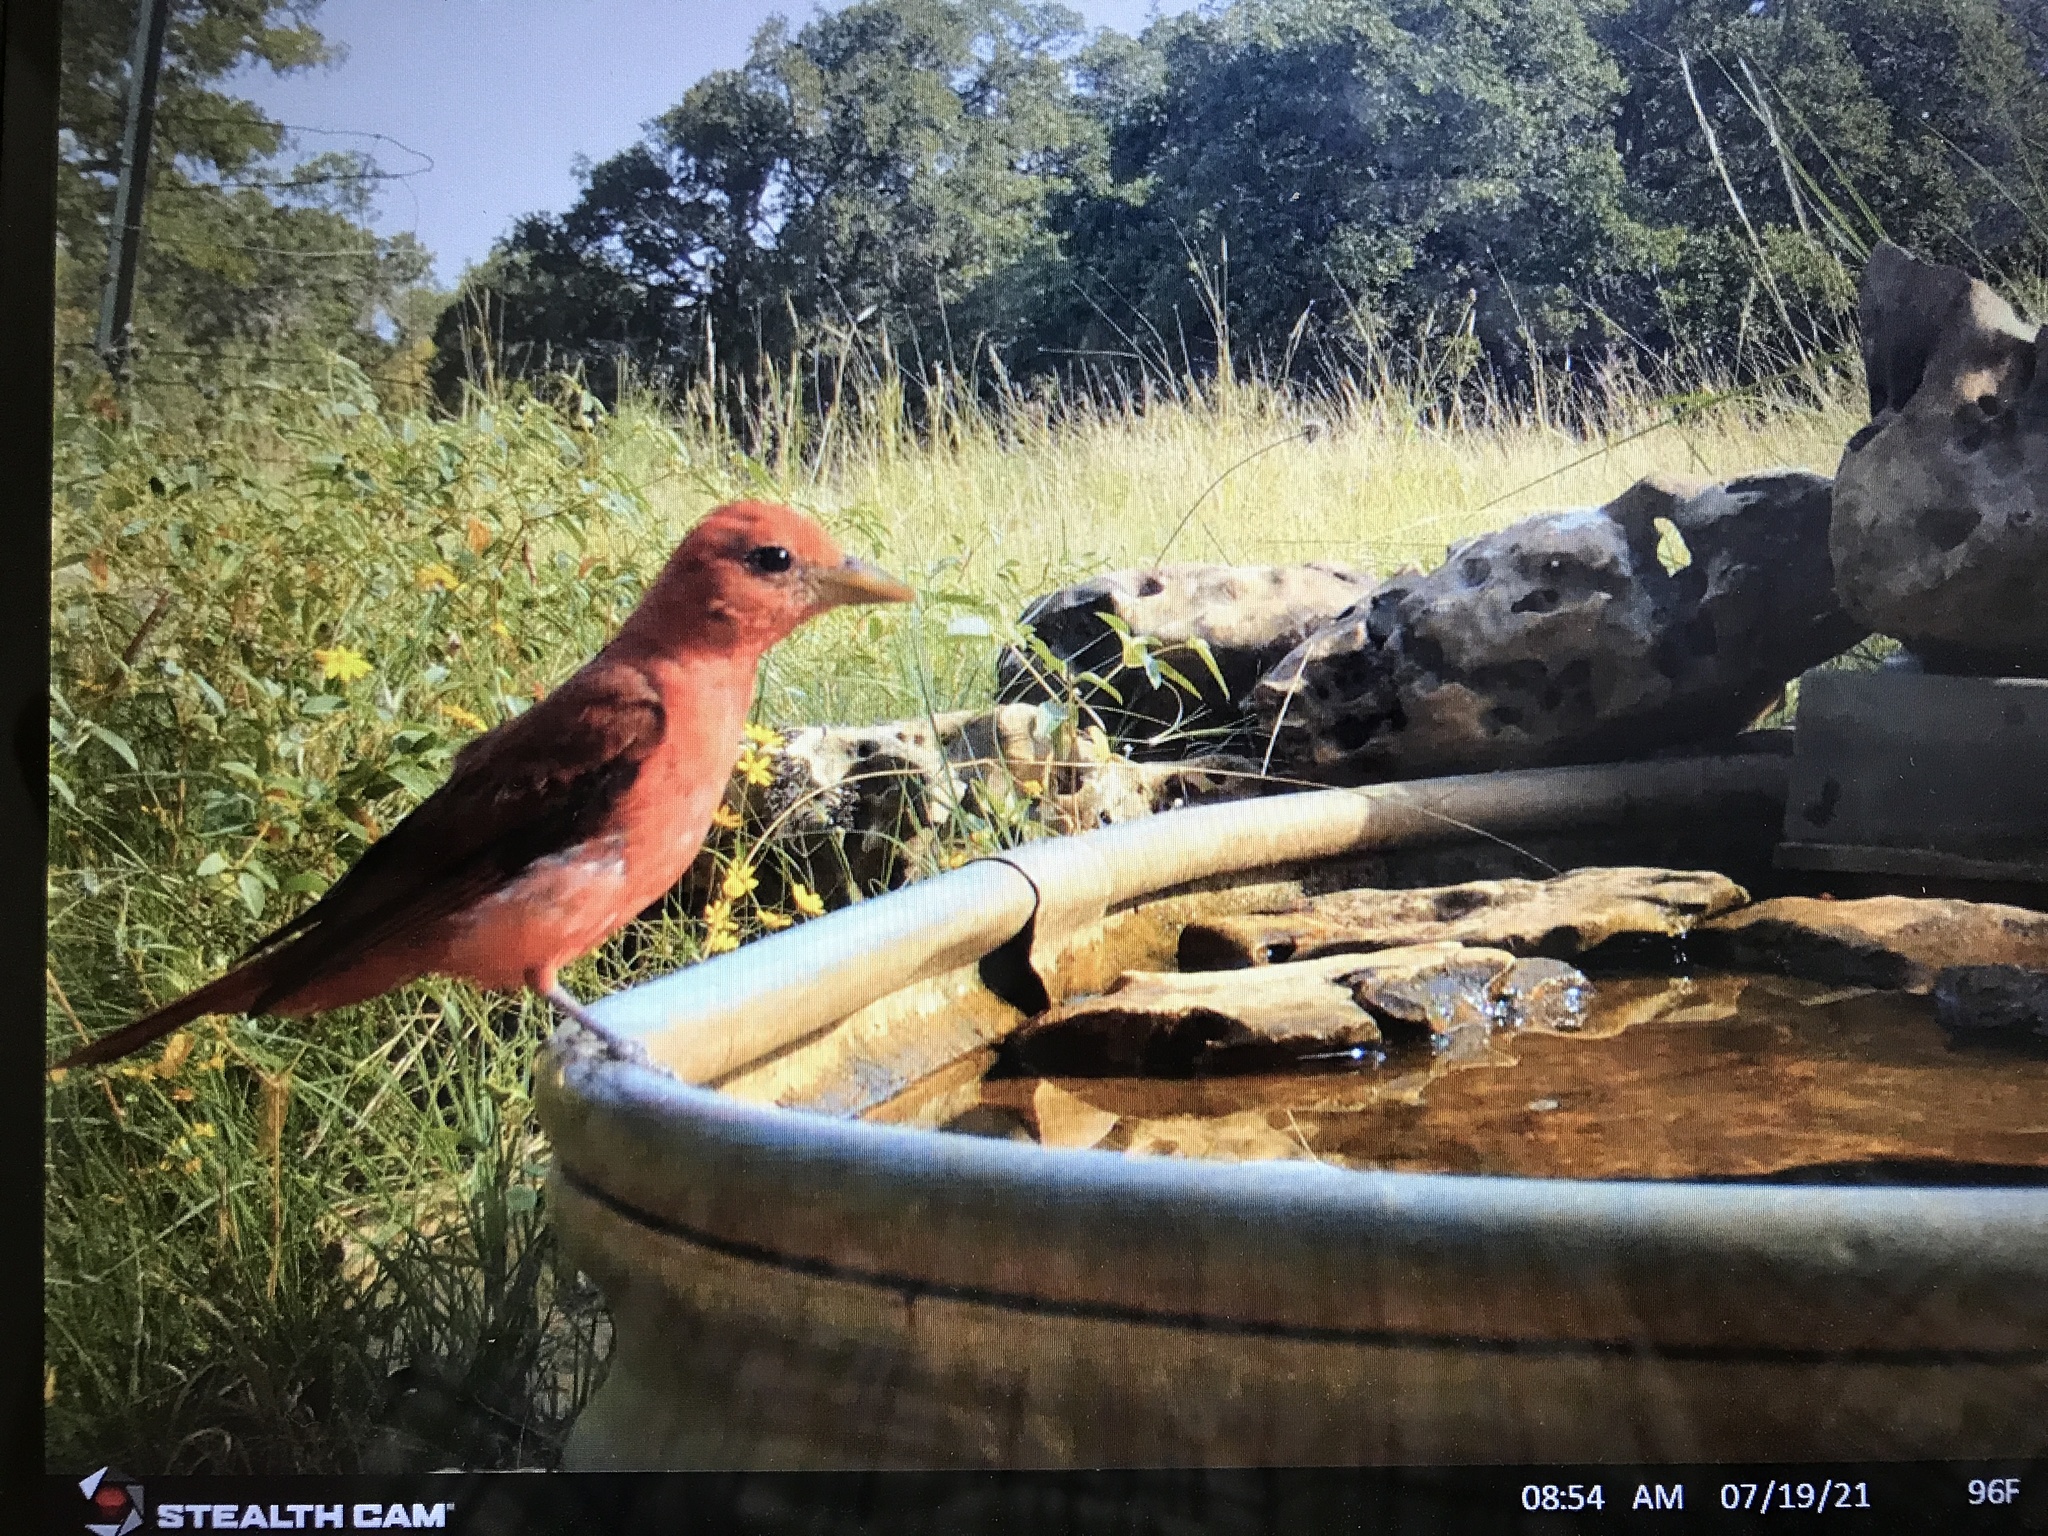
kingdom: Animalia
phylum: Chordata
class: Aves
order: Passeriformes
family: Cardinalidae
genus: Piranga
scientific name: Piranga rubra
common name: Summer tanager
